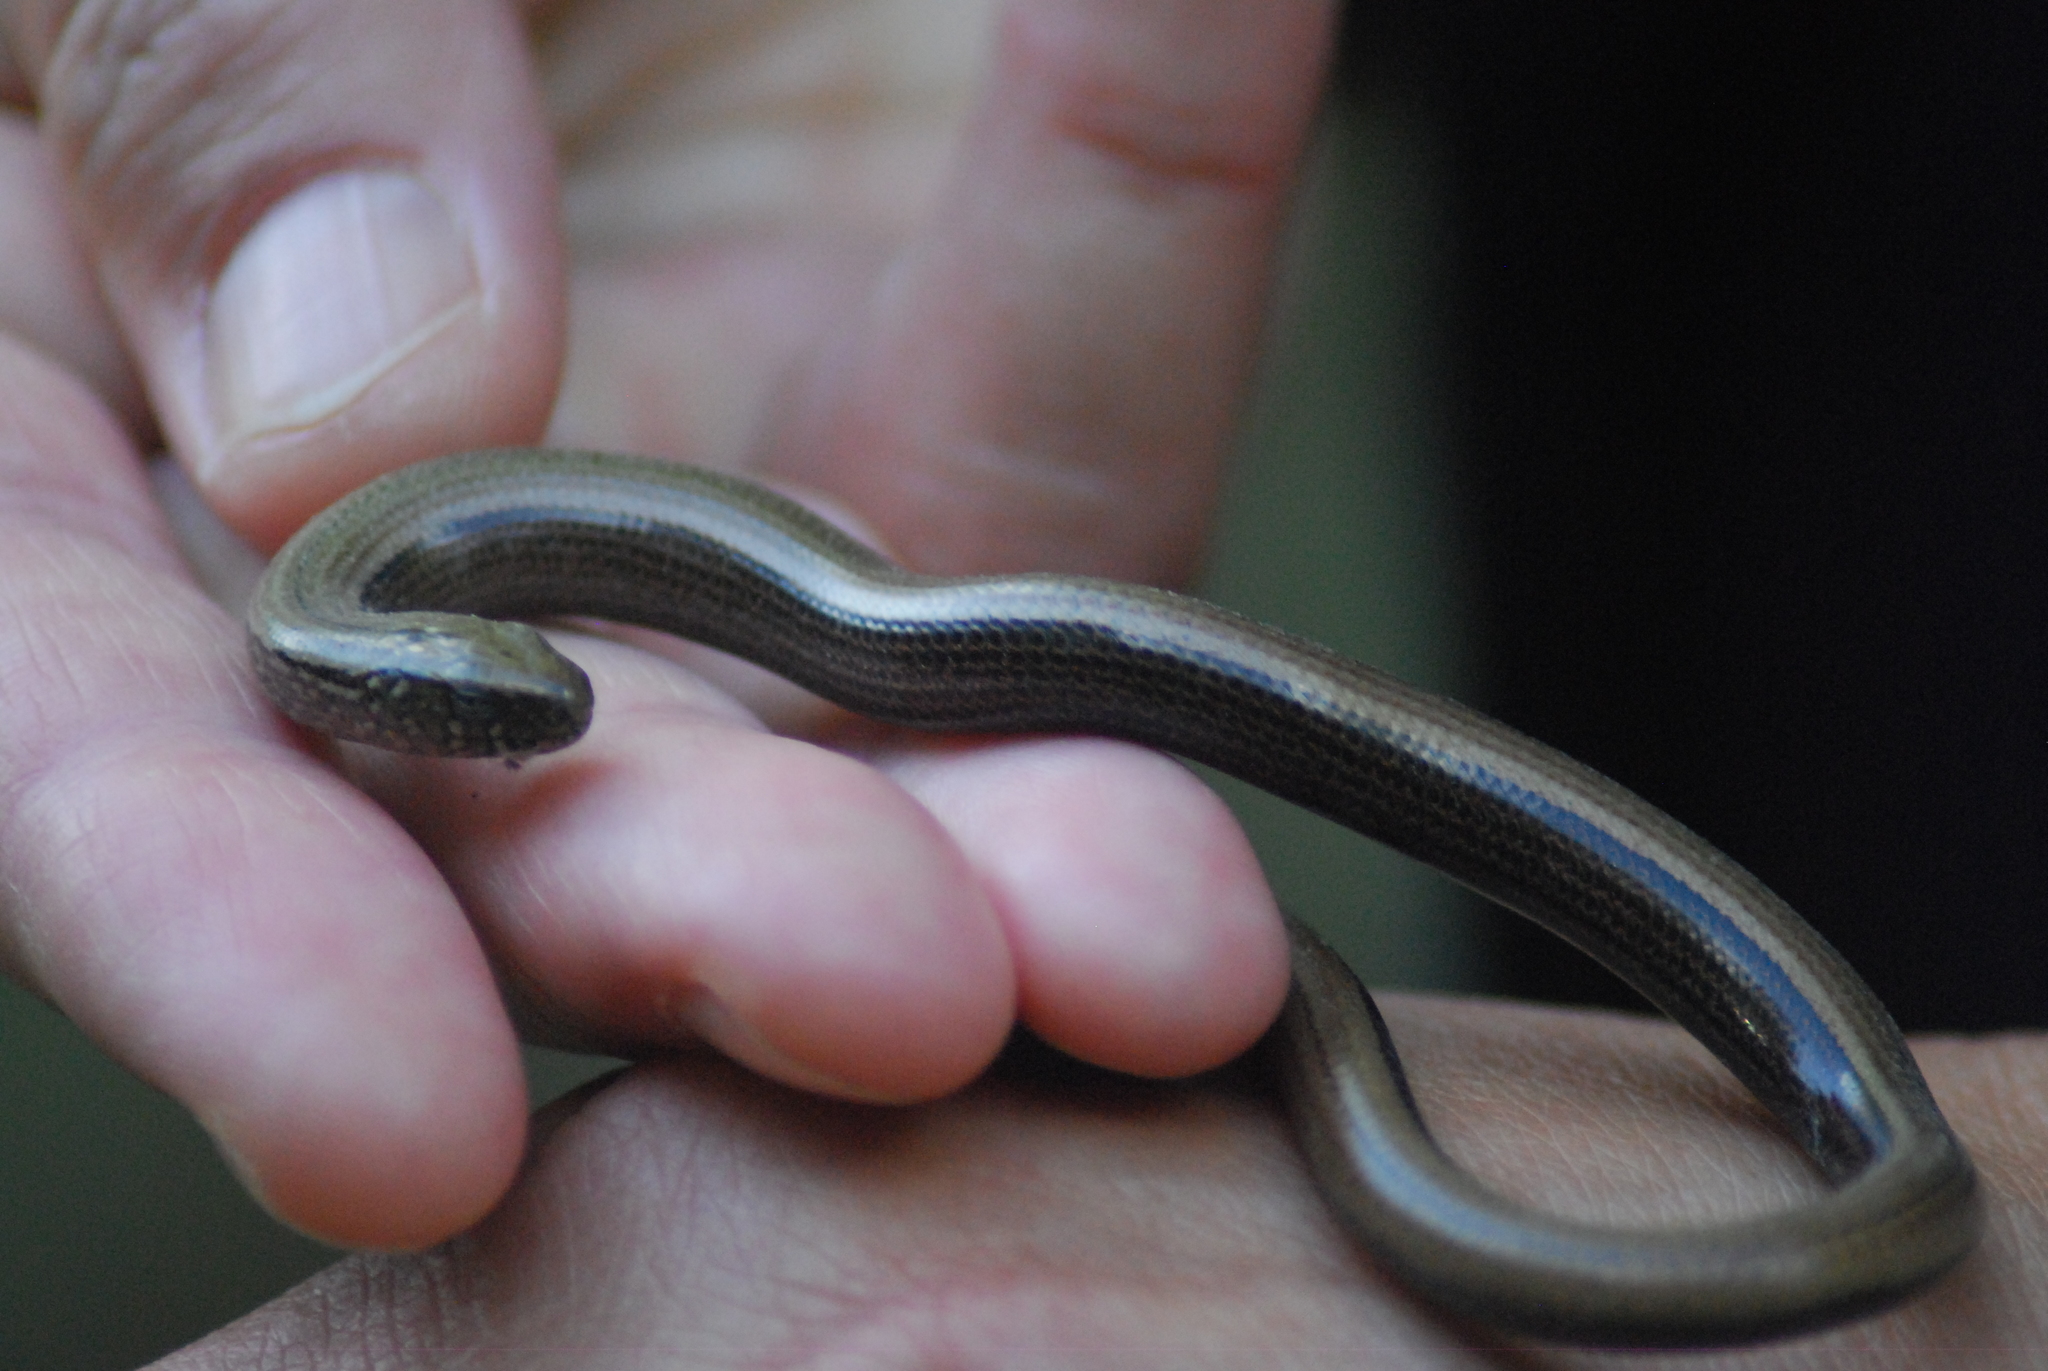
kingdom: Animalia
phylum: Chordata
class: Squamata
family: Anguidae
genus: Anguis
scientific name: Anguis fragilis
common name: Slow worm
